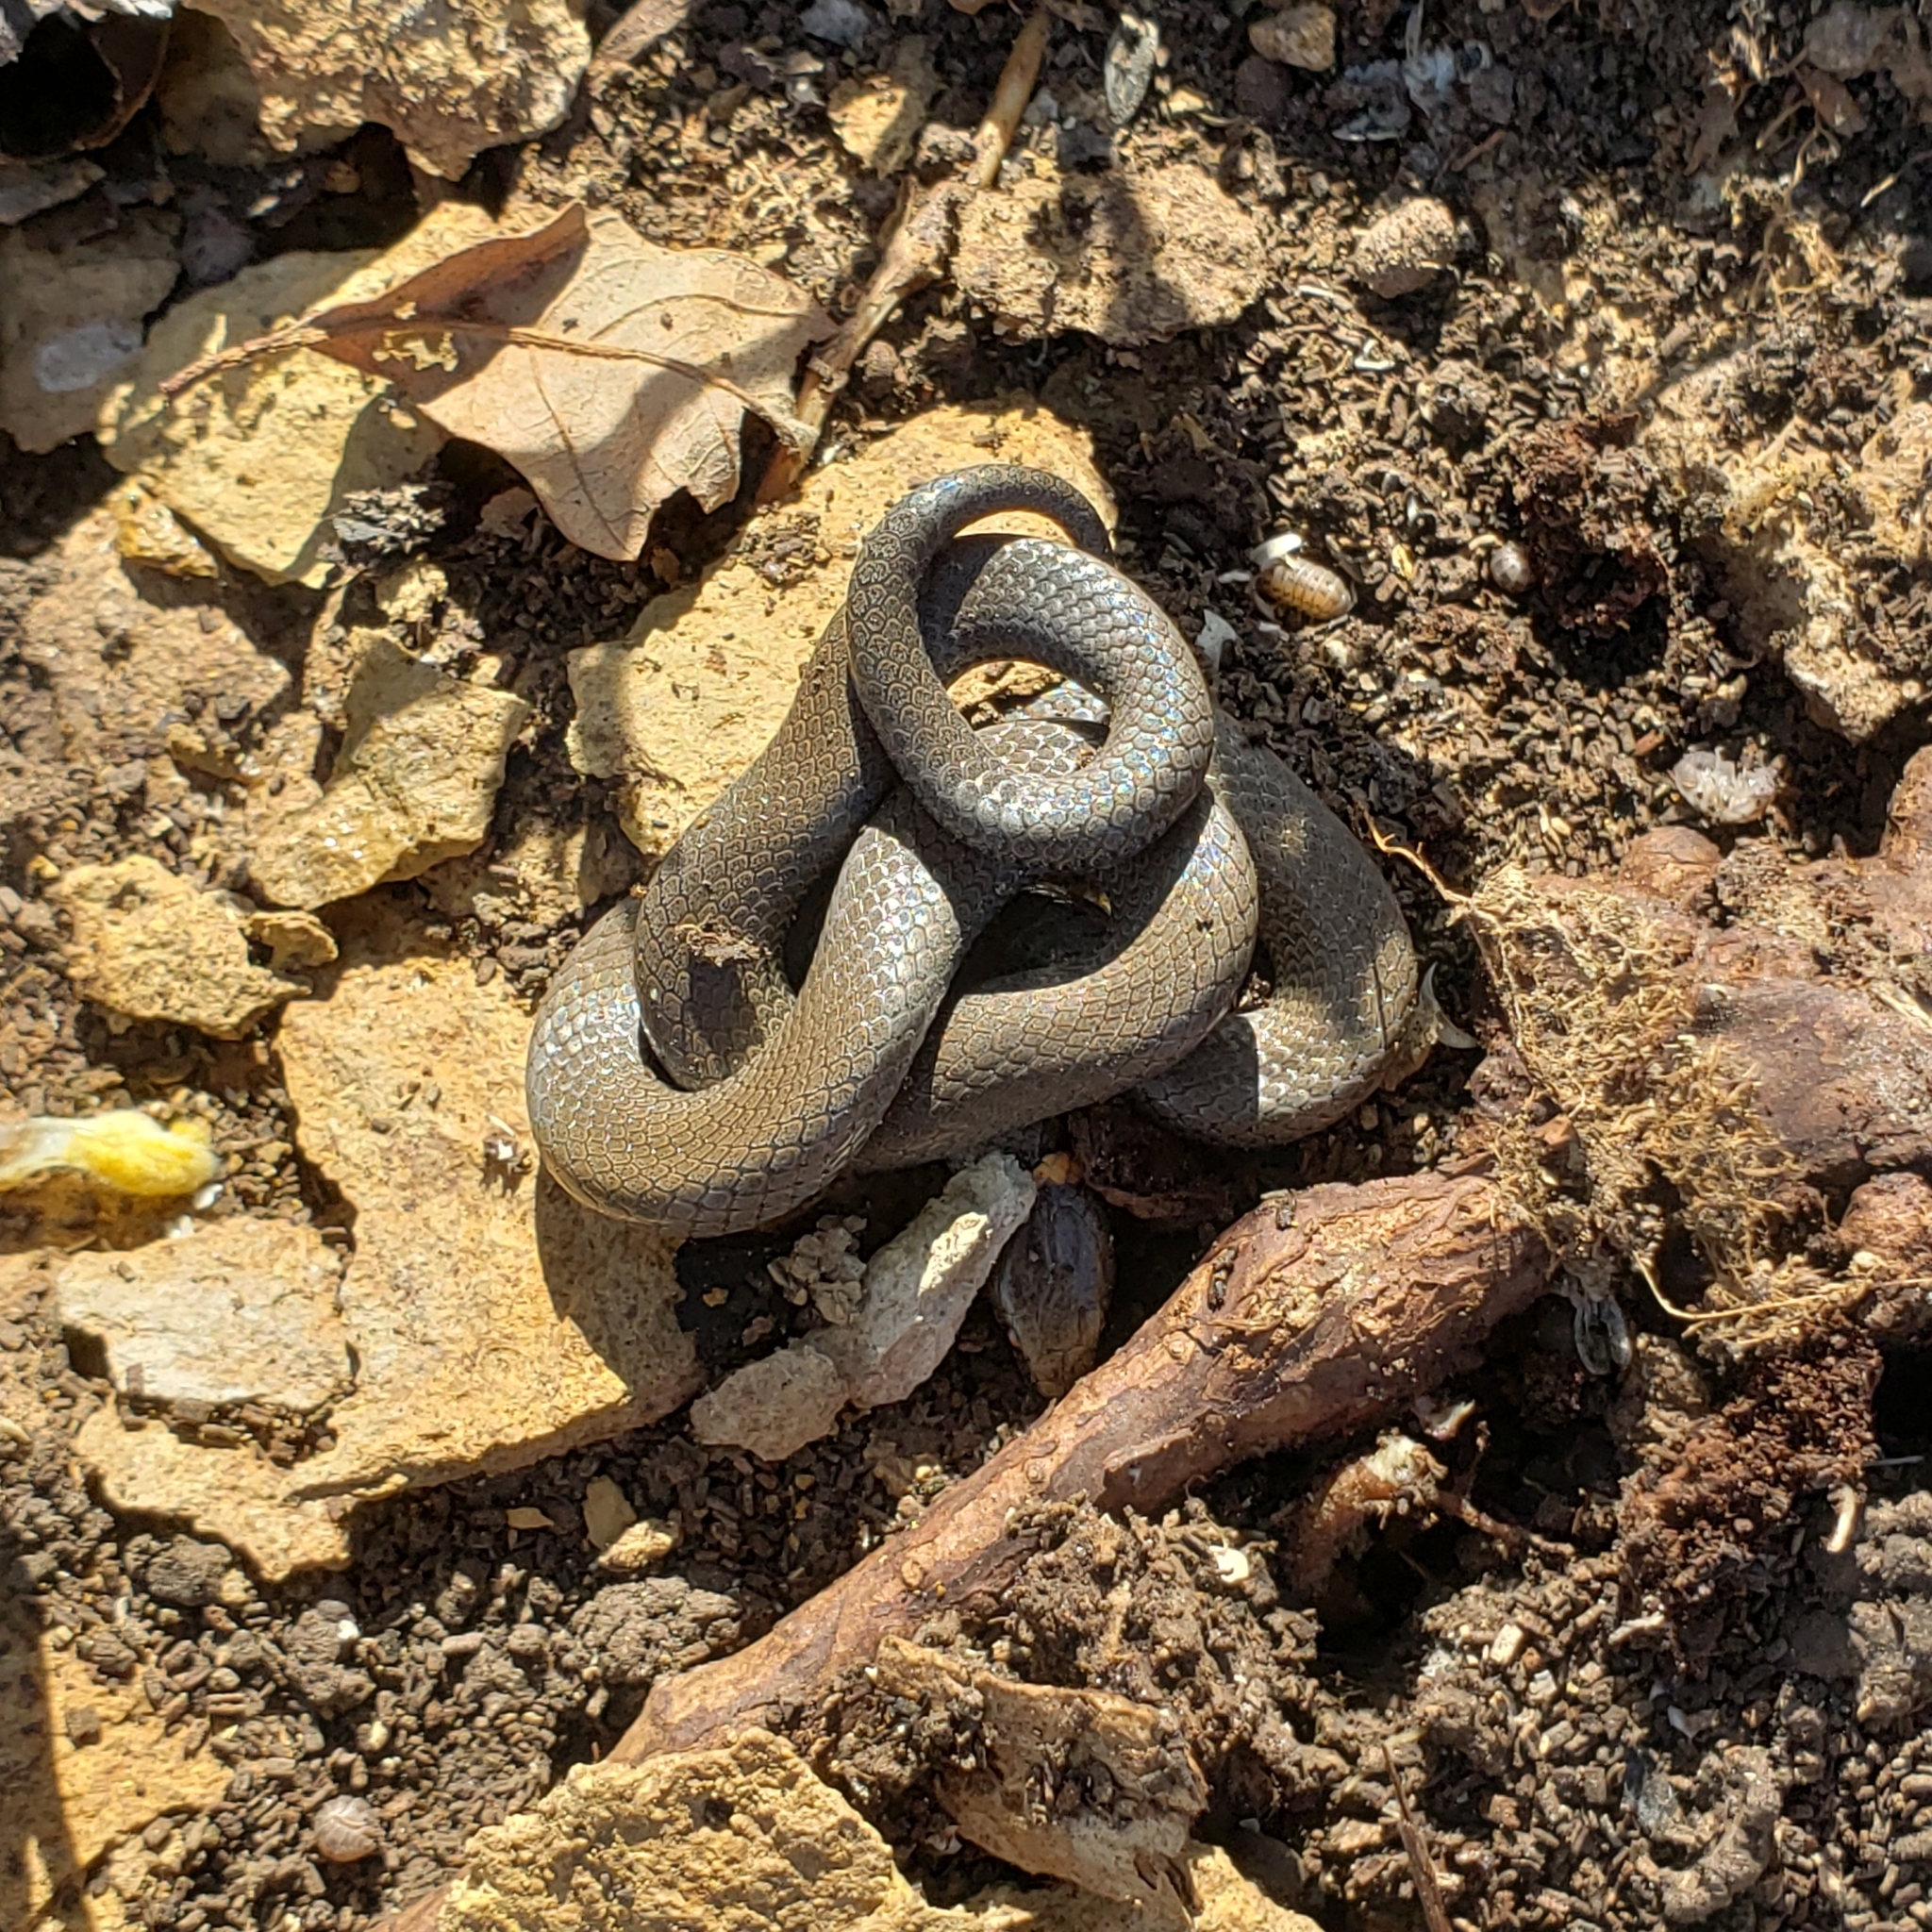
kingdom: Animalia
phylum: Chordata
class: Squamata
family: Colubridae
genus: Diadophis
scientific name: Diadophis punctatus
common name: Ringneck snake
